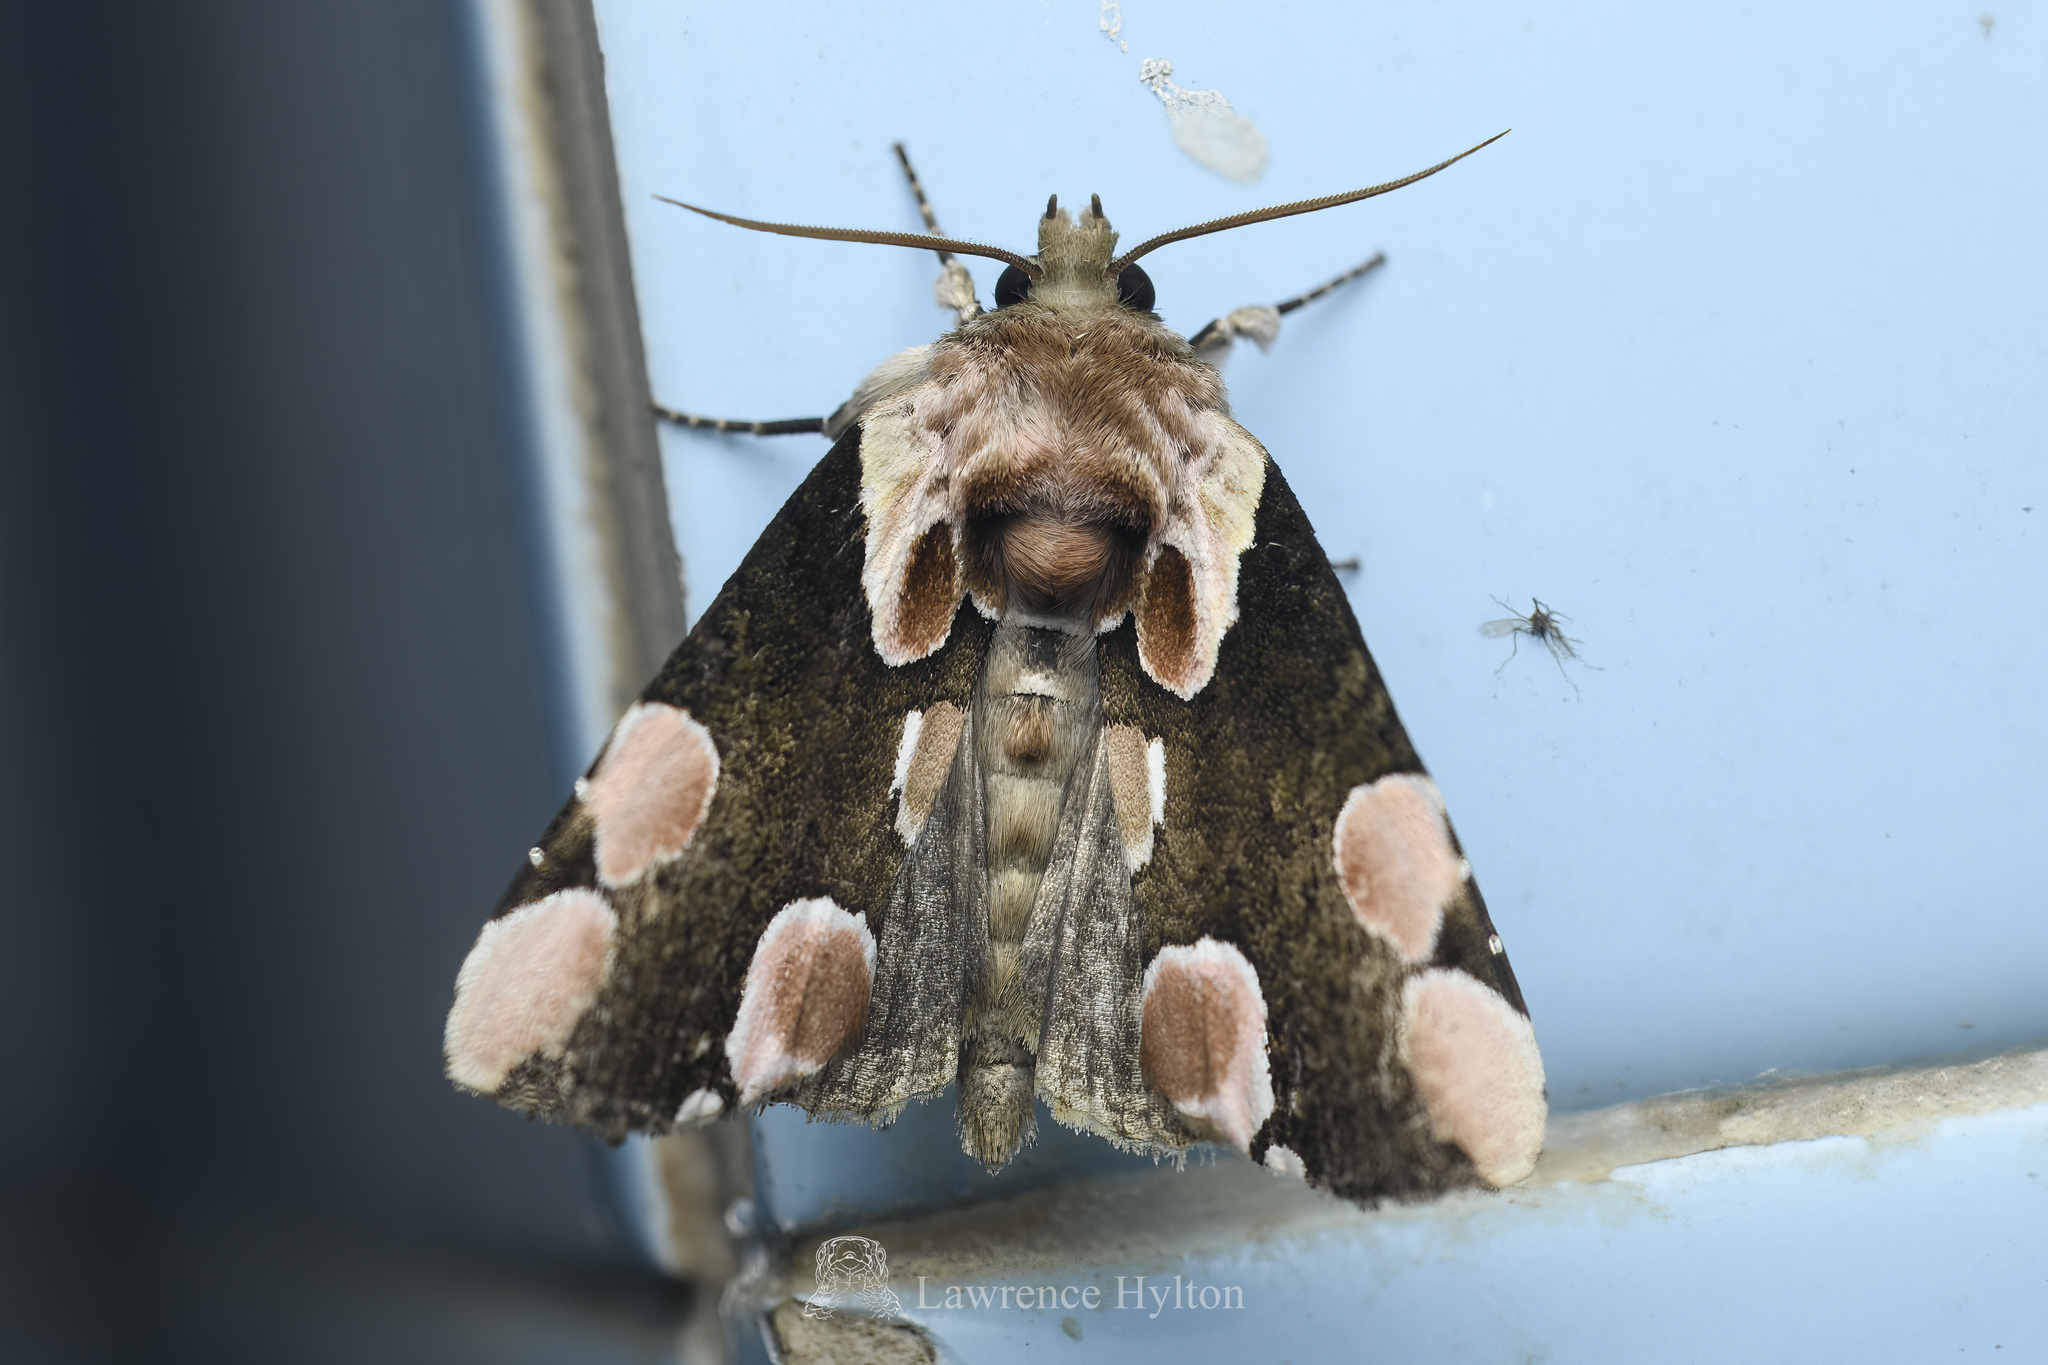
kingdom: Animalia
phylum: Arthropoda
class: Insecta
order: Lepidoptera
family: Drepanidae
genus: Thyatira
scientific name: Thyatira batis
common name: Peach blossom
